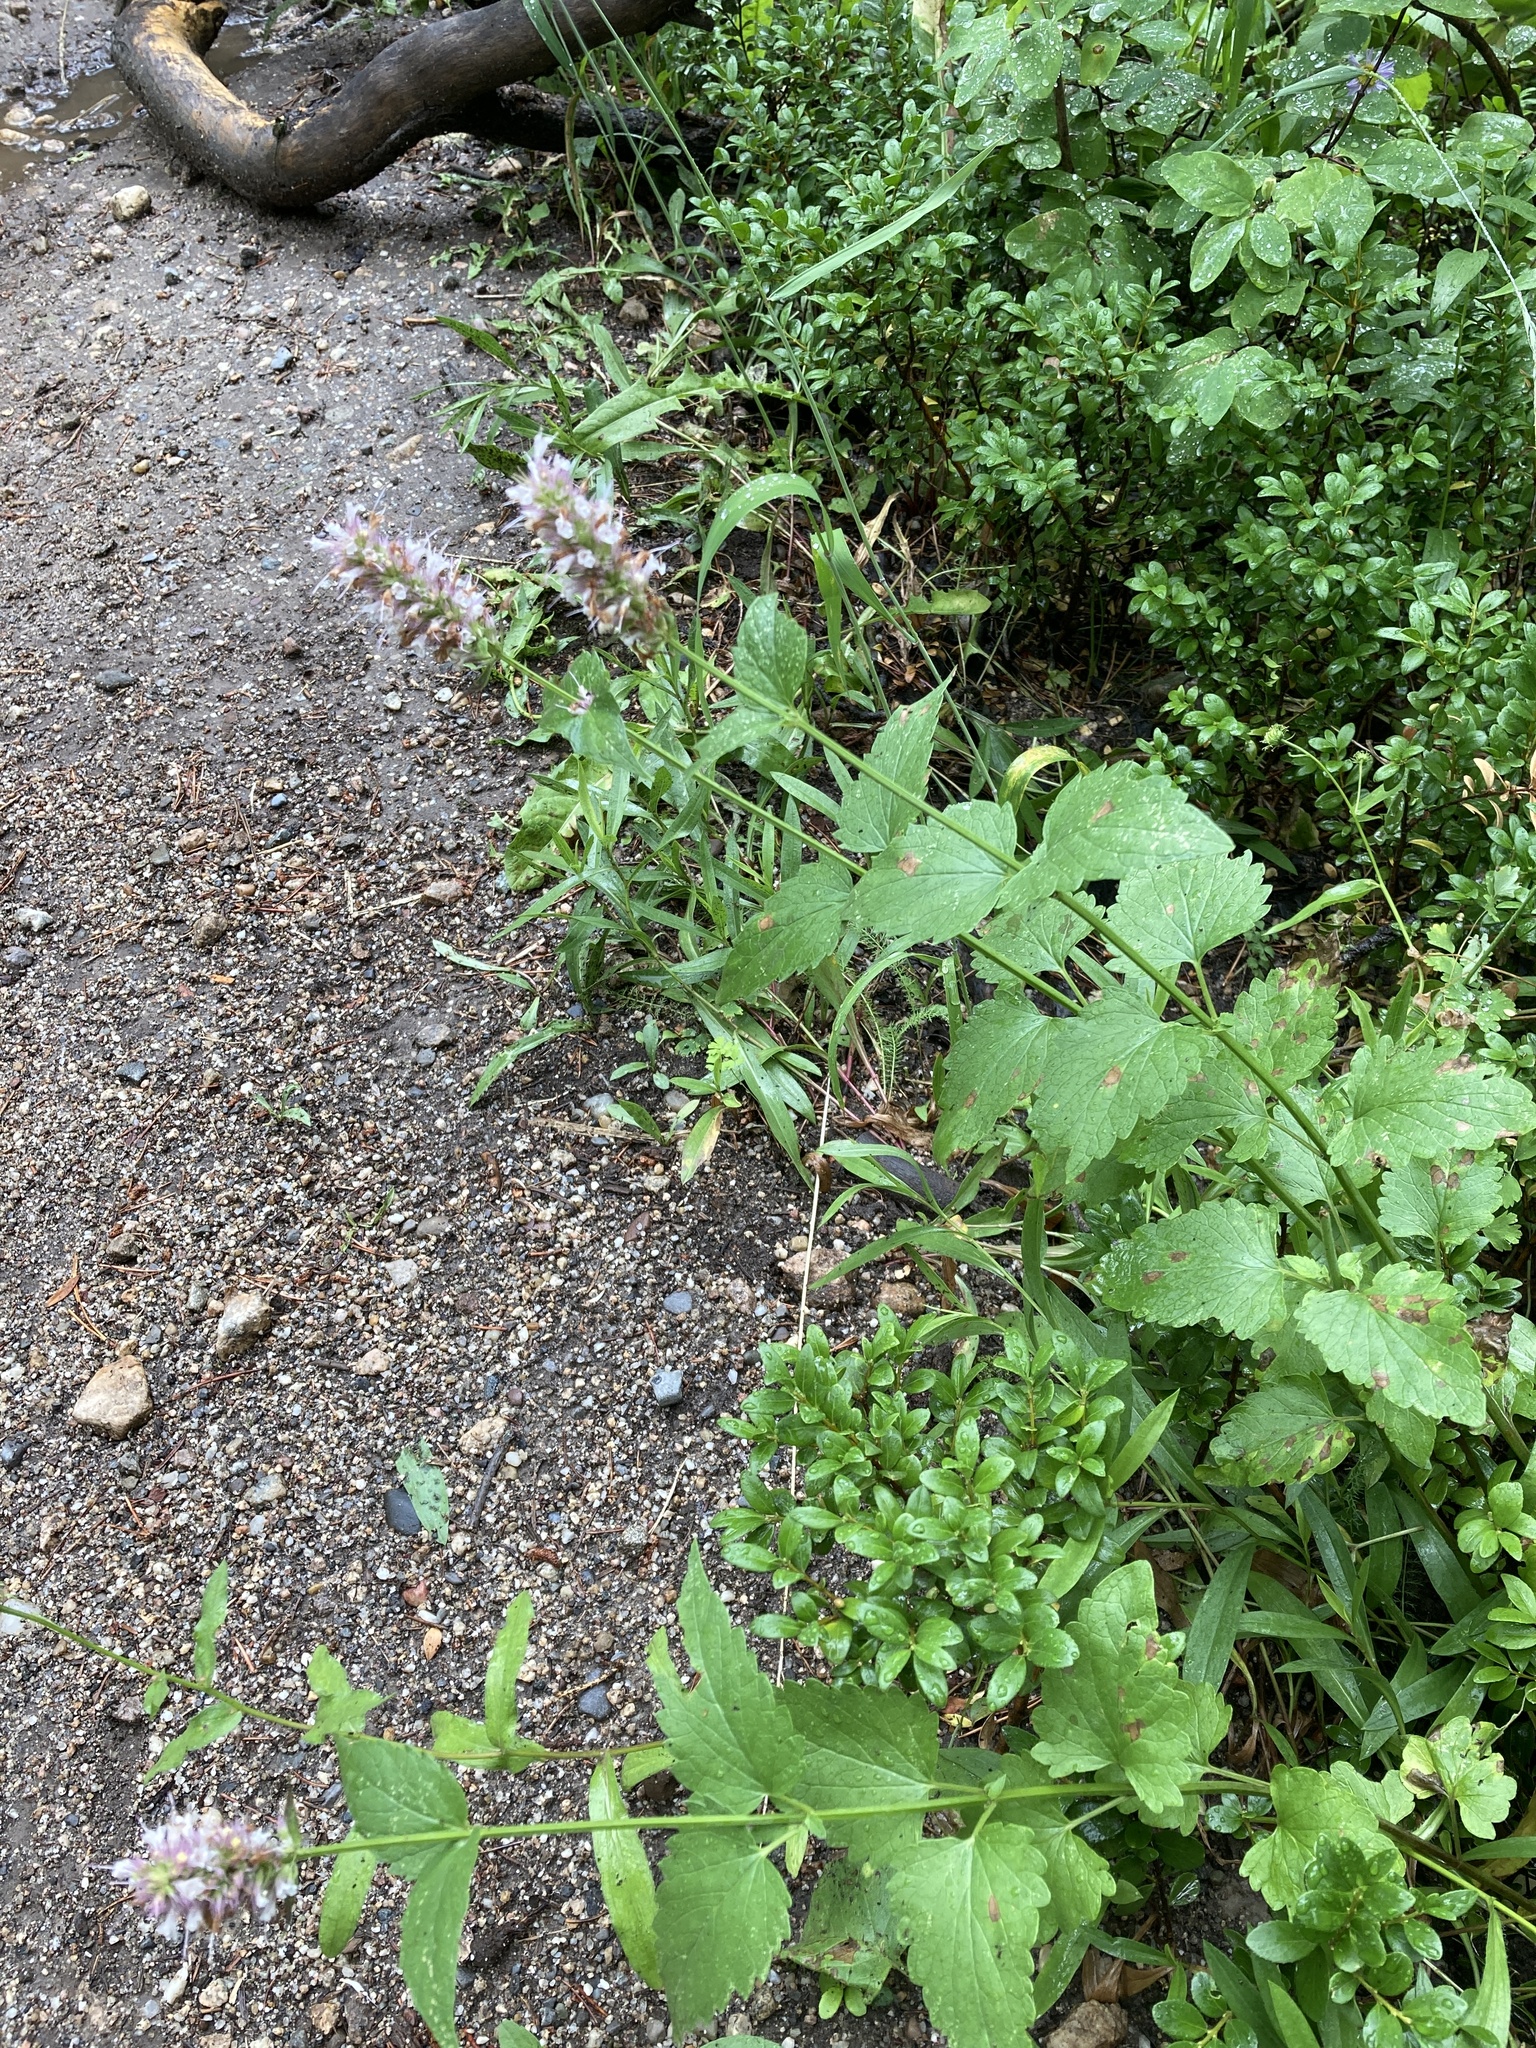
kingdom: Plantae
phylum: Tracheophyta
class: Magnoliopsida
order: Lamiales
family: Lamiaceae
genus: Agastache
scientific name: Agastache urticifolia
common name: Horsemint giant hyssop
